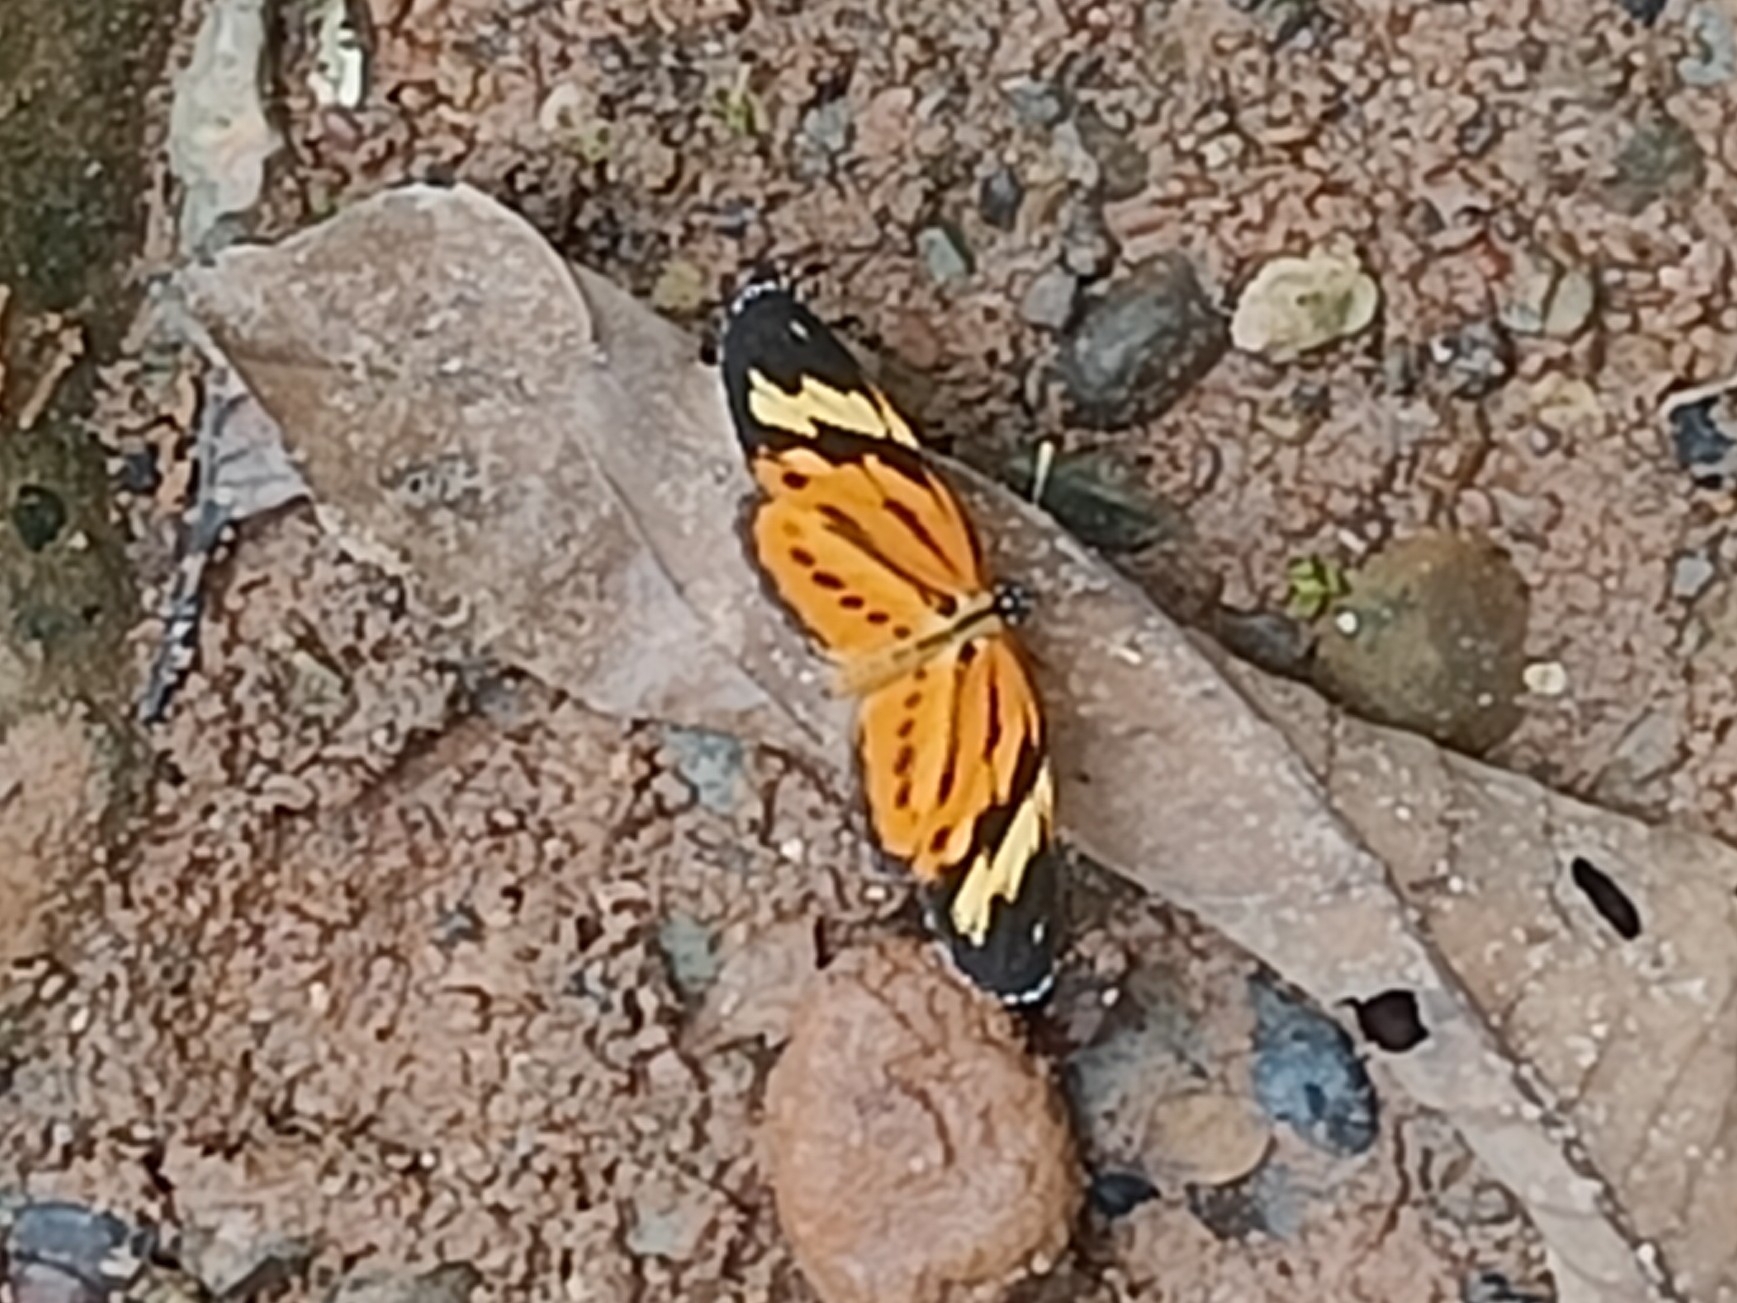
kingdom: Animalia
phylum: Arthropoda
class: Insecta
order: Lepidoptera
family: Nymphalidae
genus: Eresia
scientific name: Eresia eunice
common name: Tiger crescent
